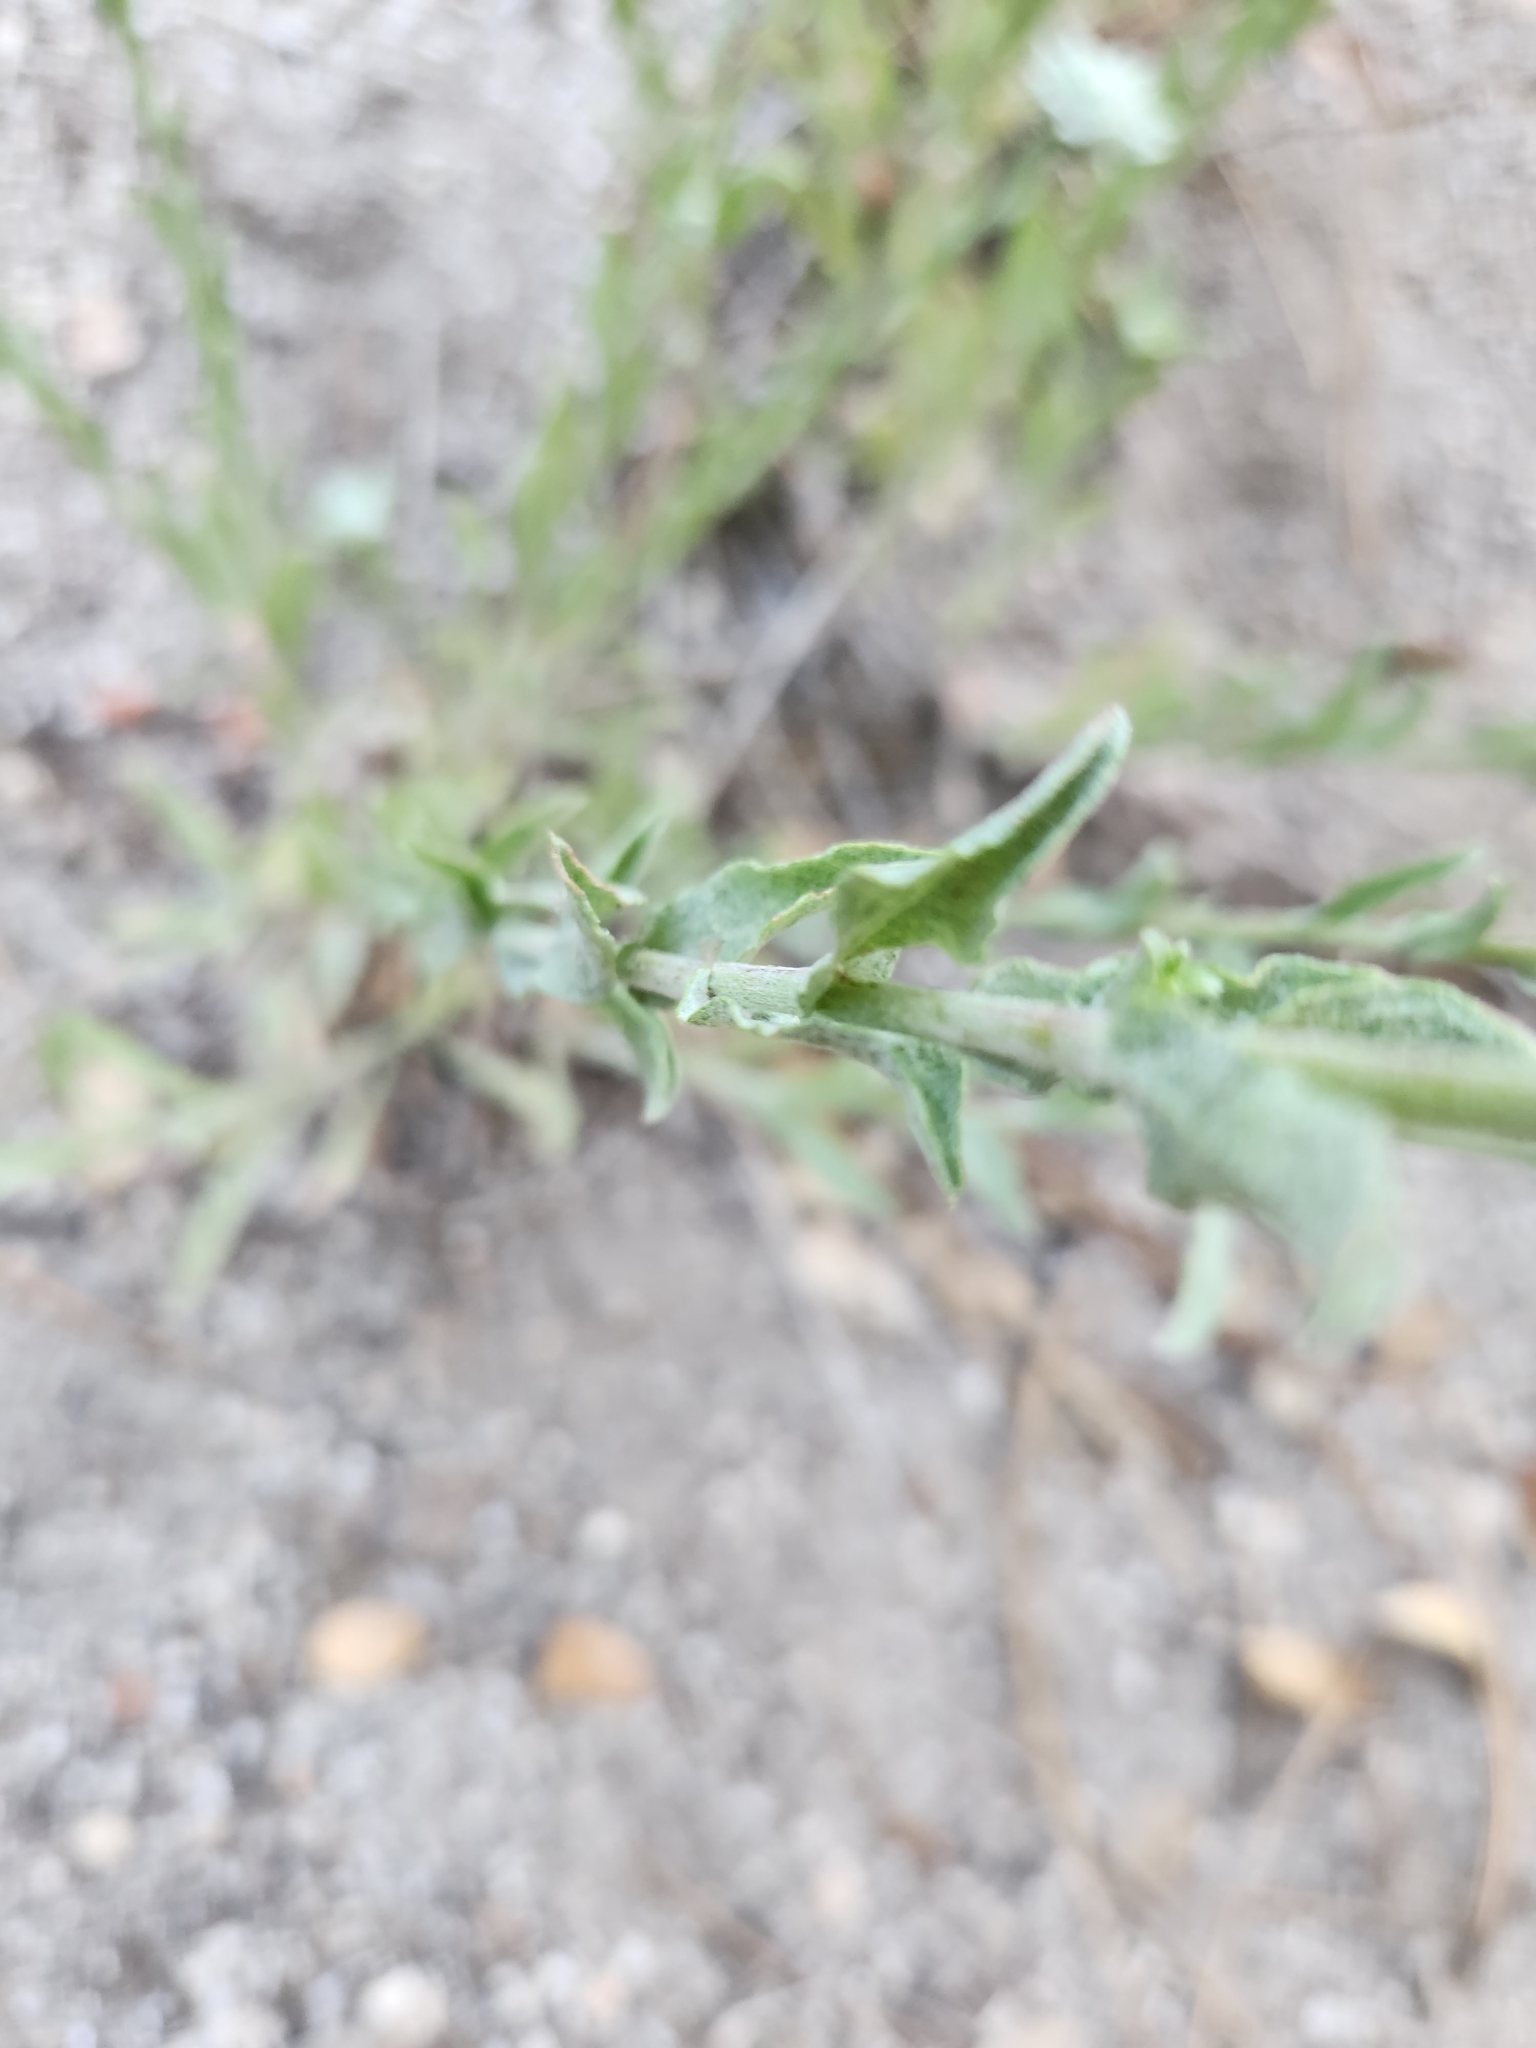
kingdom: Plantae
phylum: Tracheophyta
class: Magnoliopsida
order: Asterales
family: Asteraceae
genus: Corethrogyne
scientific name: Corethrogyne filaginifolia
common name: Sand-aster
